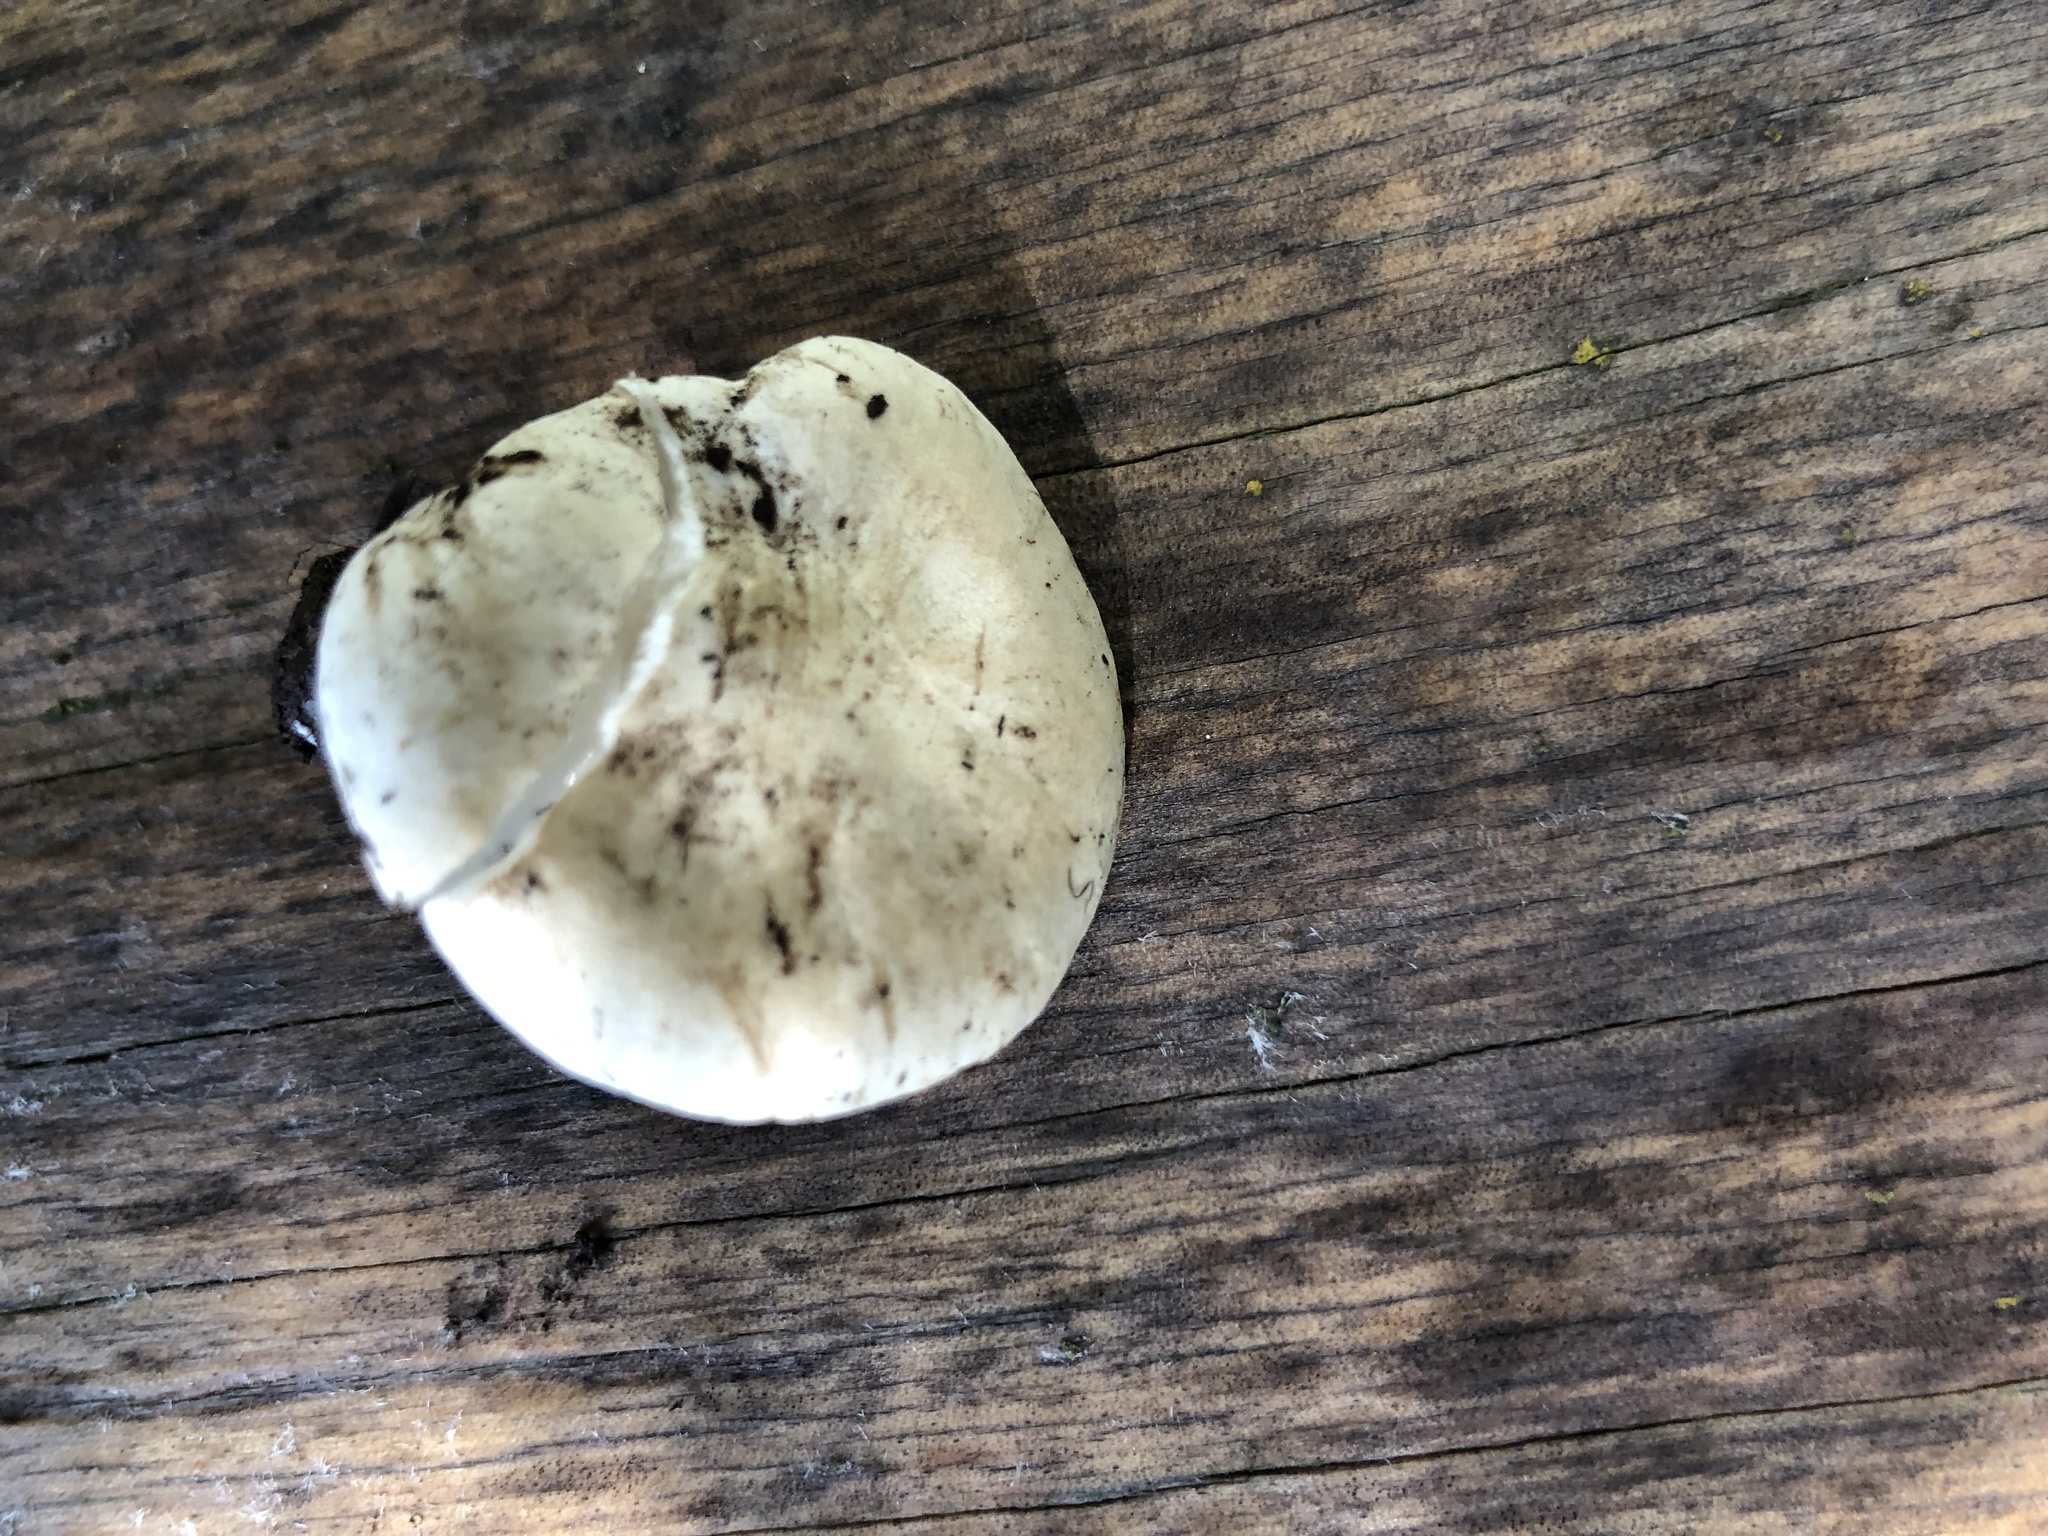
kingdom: Fungi
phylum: Basidiomycota
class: Agaricomycetes
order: Agaricales
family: Entolomataceae
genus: Clitopilus
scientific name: Clitopilus prunulus
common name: The miller
